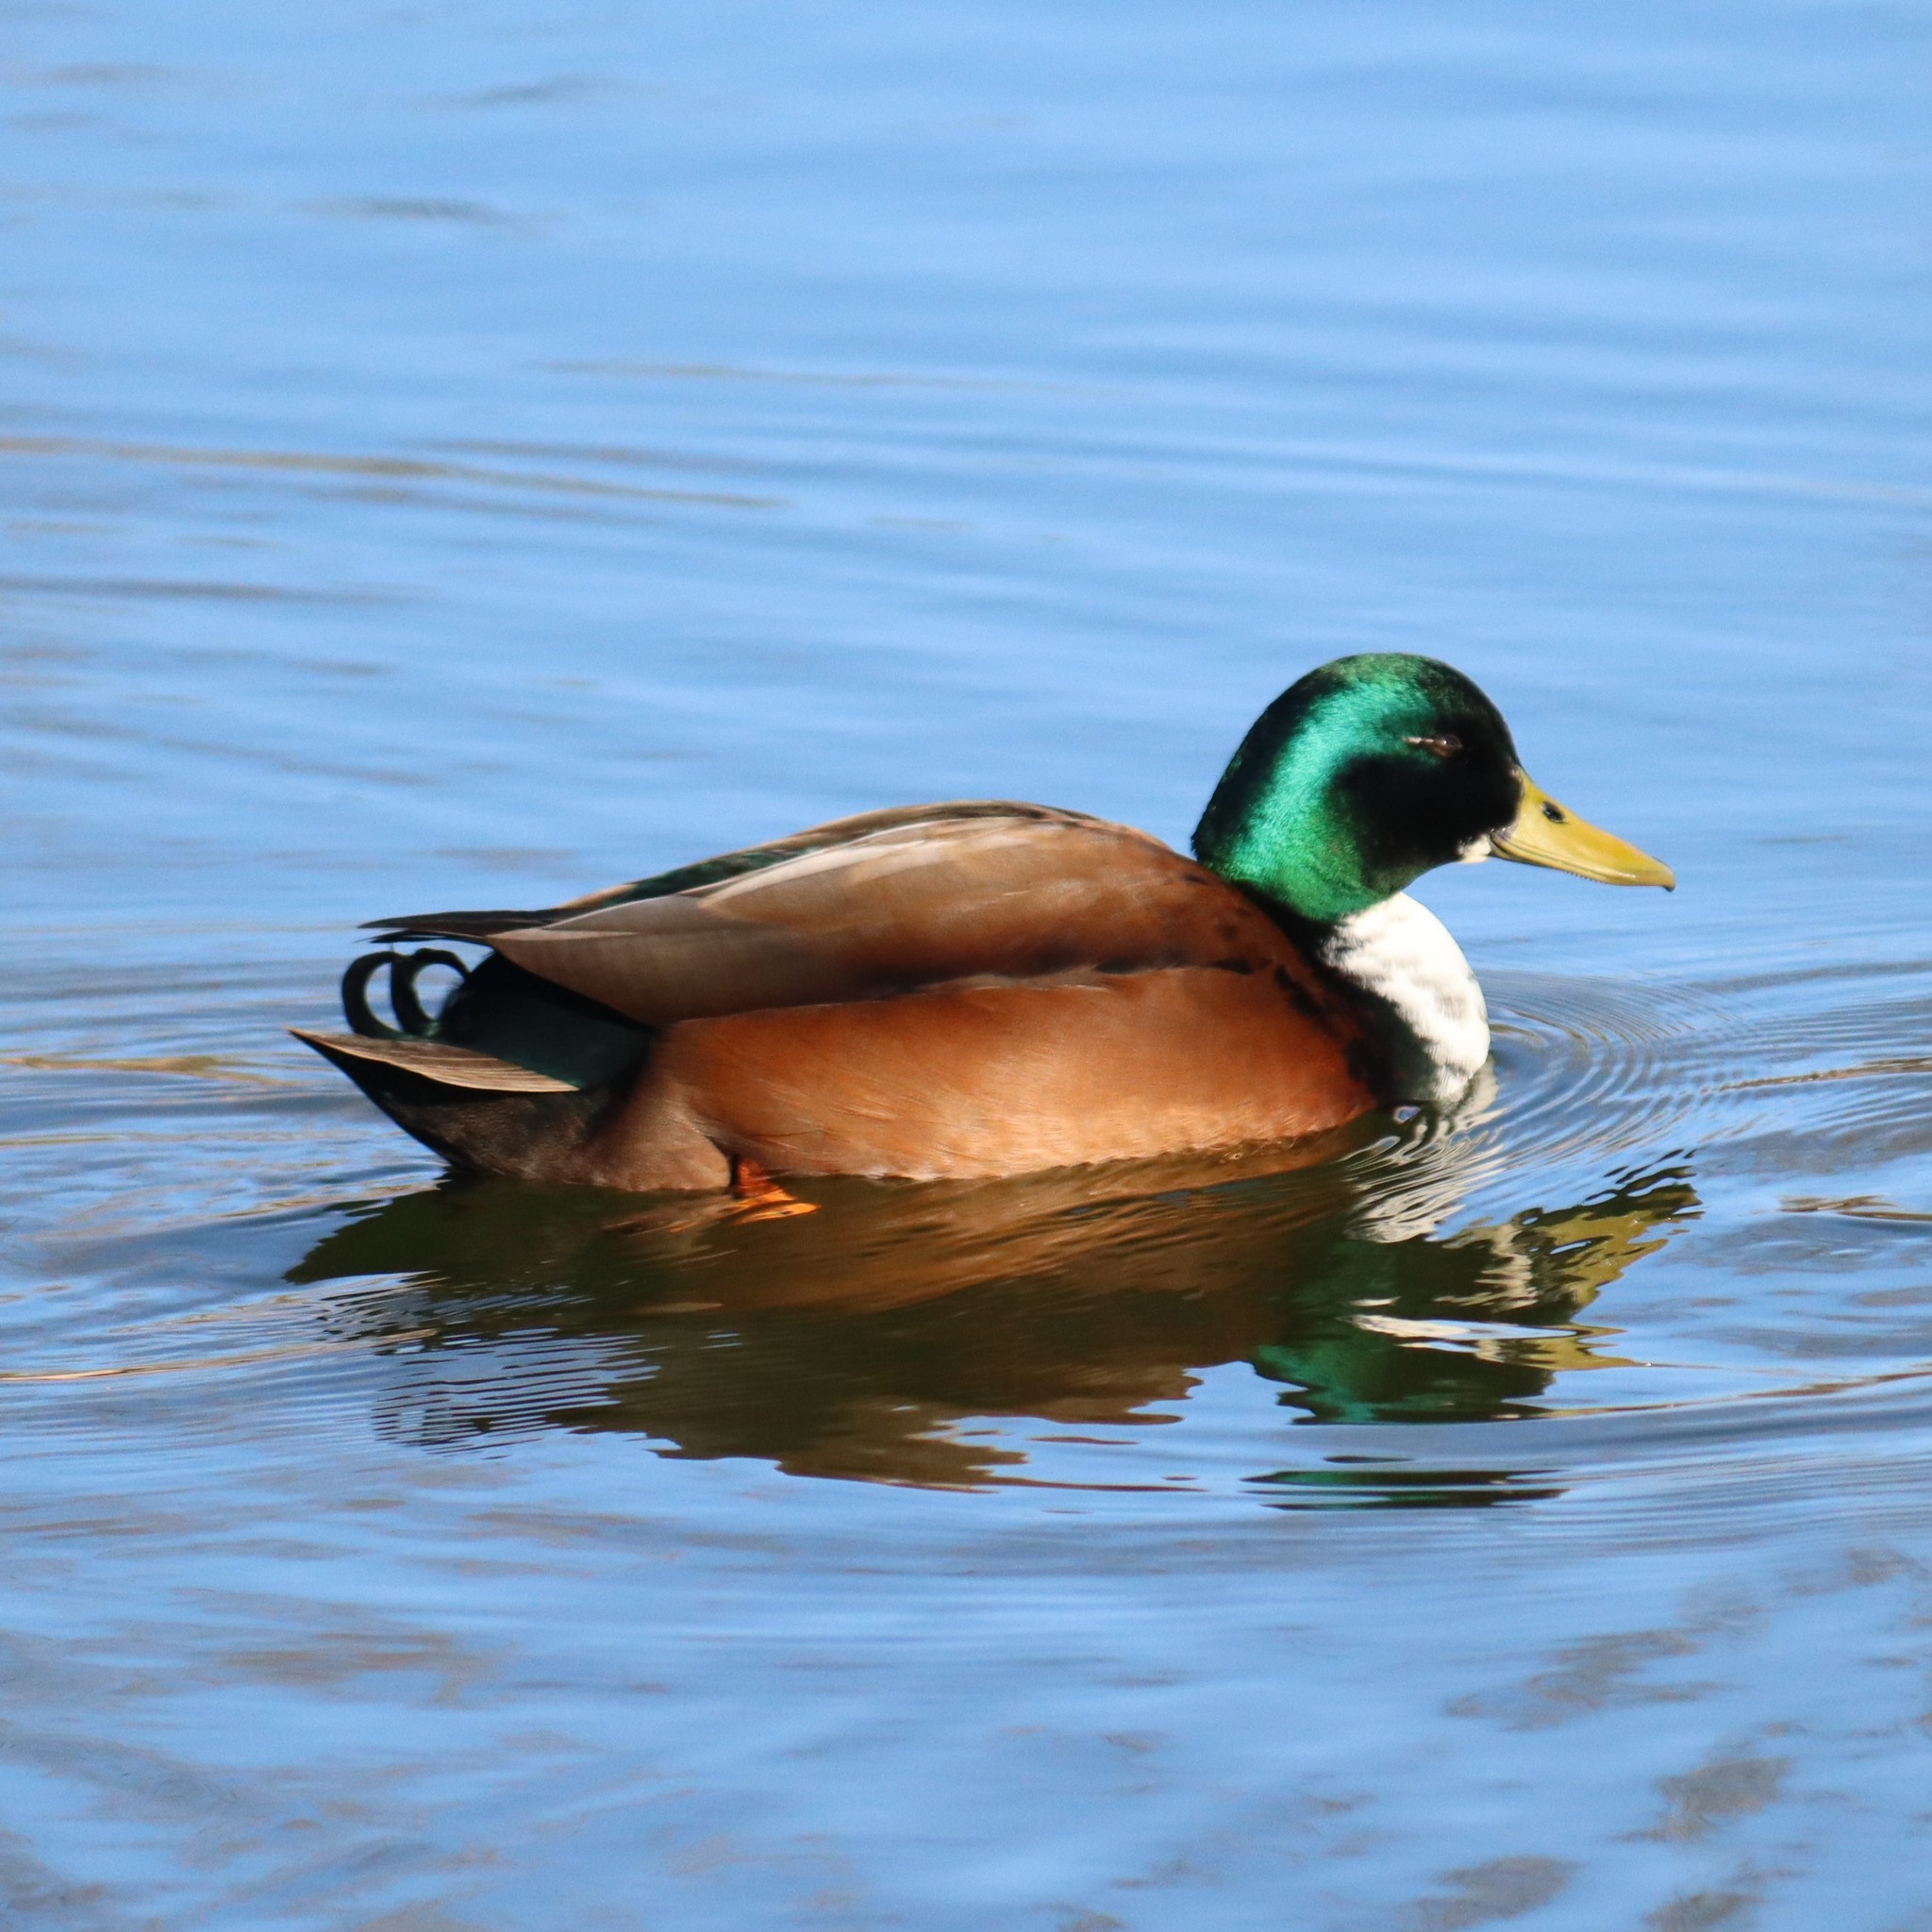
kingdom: Animalia
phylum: Chordata
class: Aves
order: Anseriformes
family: Anatidae
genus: Anas
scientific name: Anas platyrhynchos
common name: Mallard
